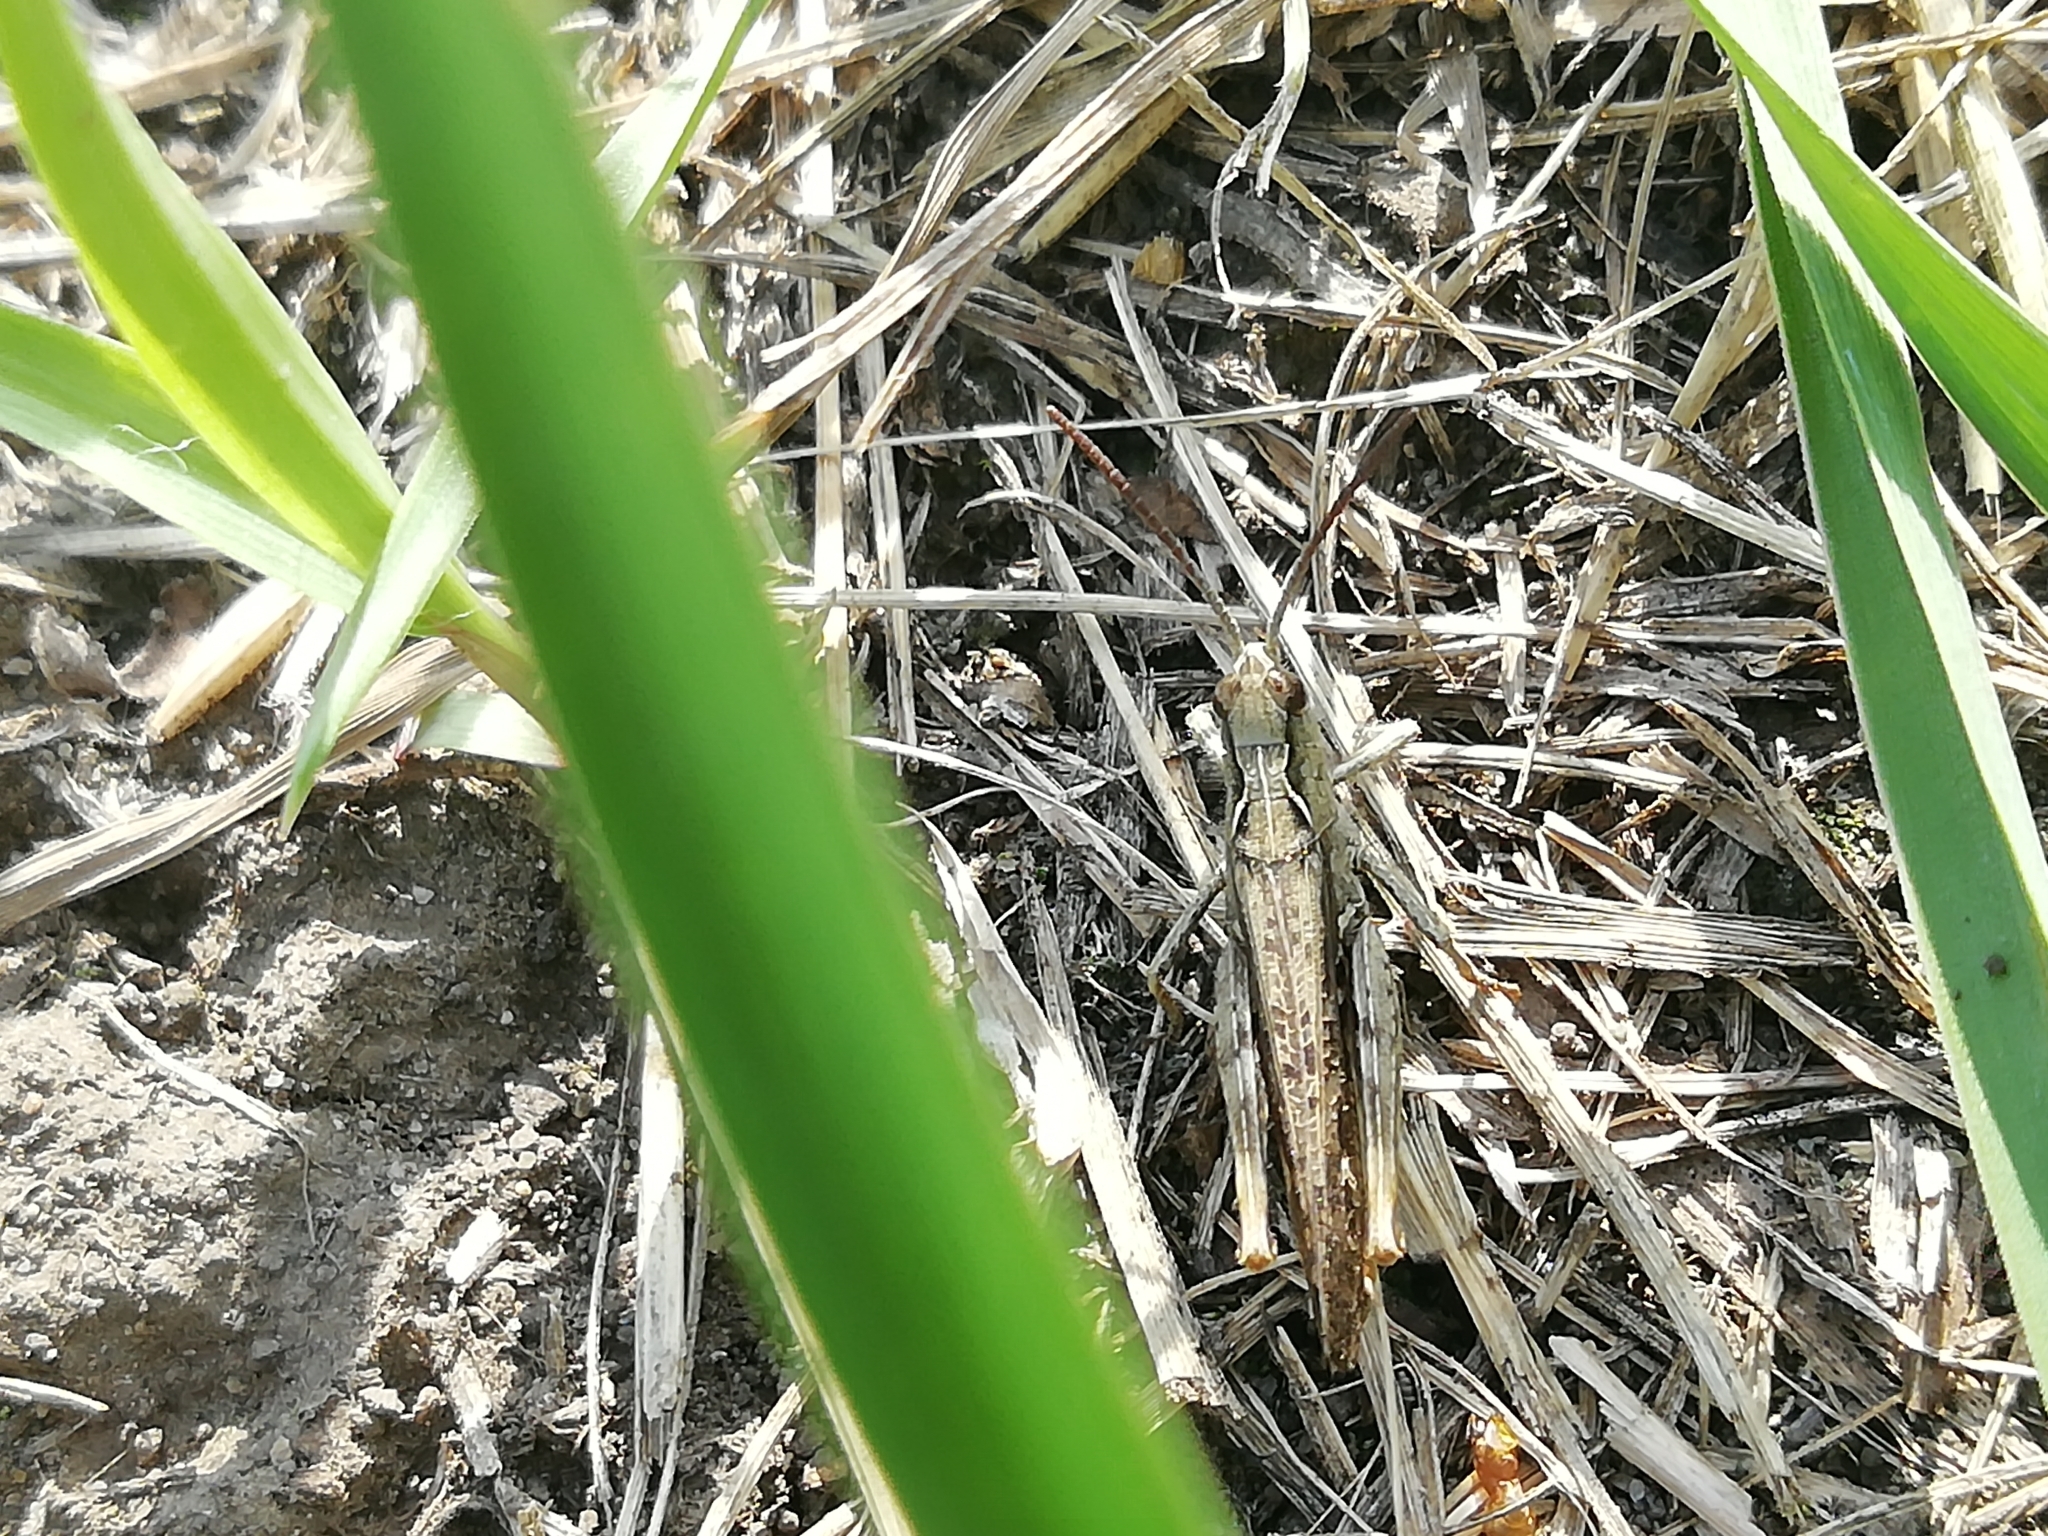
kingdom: Animalia
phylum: Arthropoda
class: Insecta
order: Orthoptera
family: Acrididae
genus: Chorthippus
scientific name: Chorthippus biguttulus
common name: Bow-winged grasshopper
